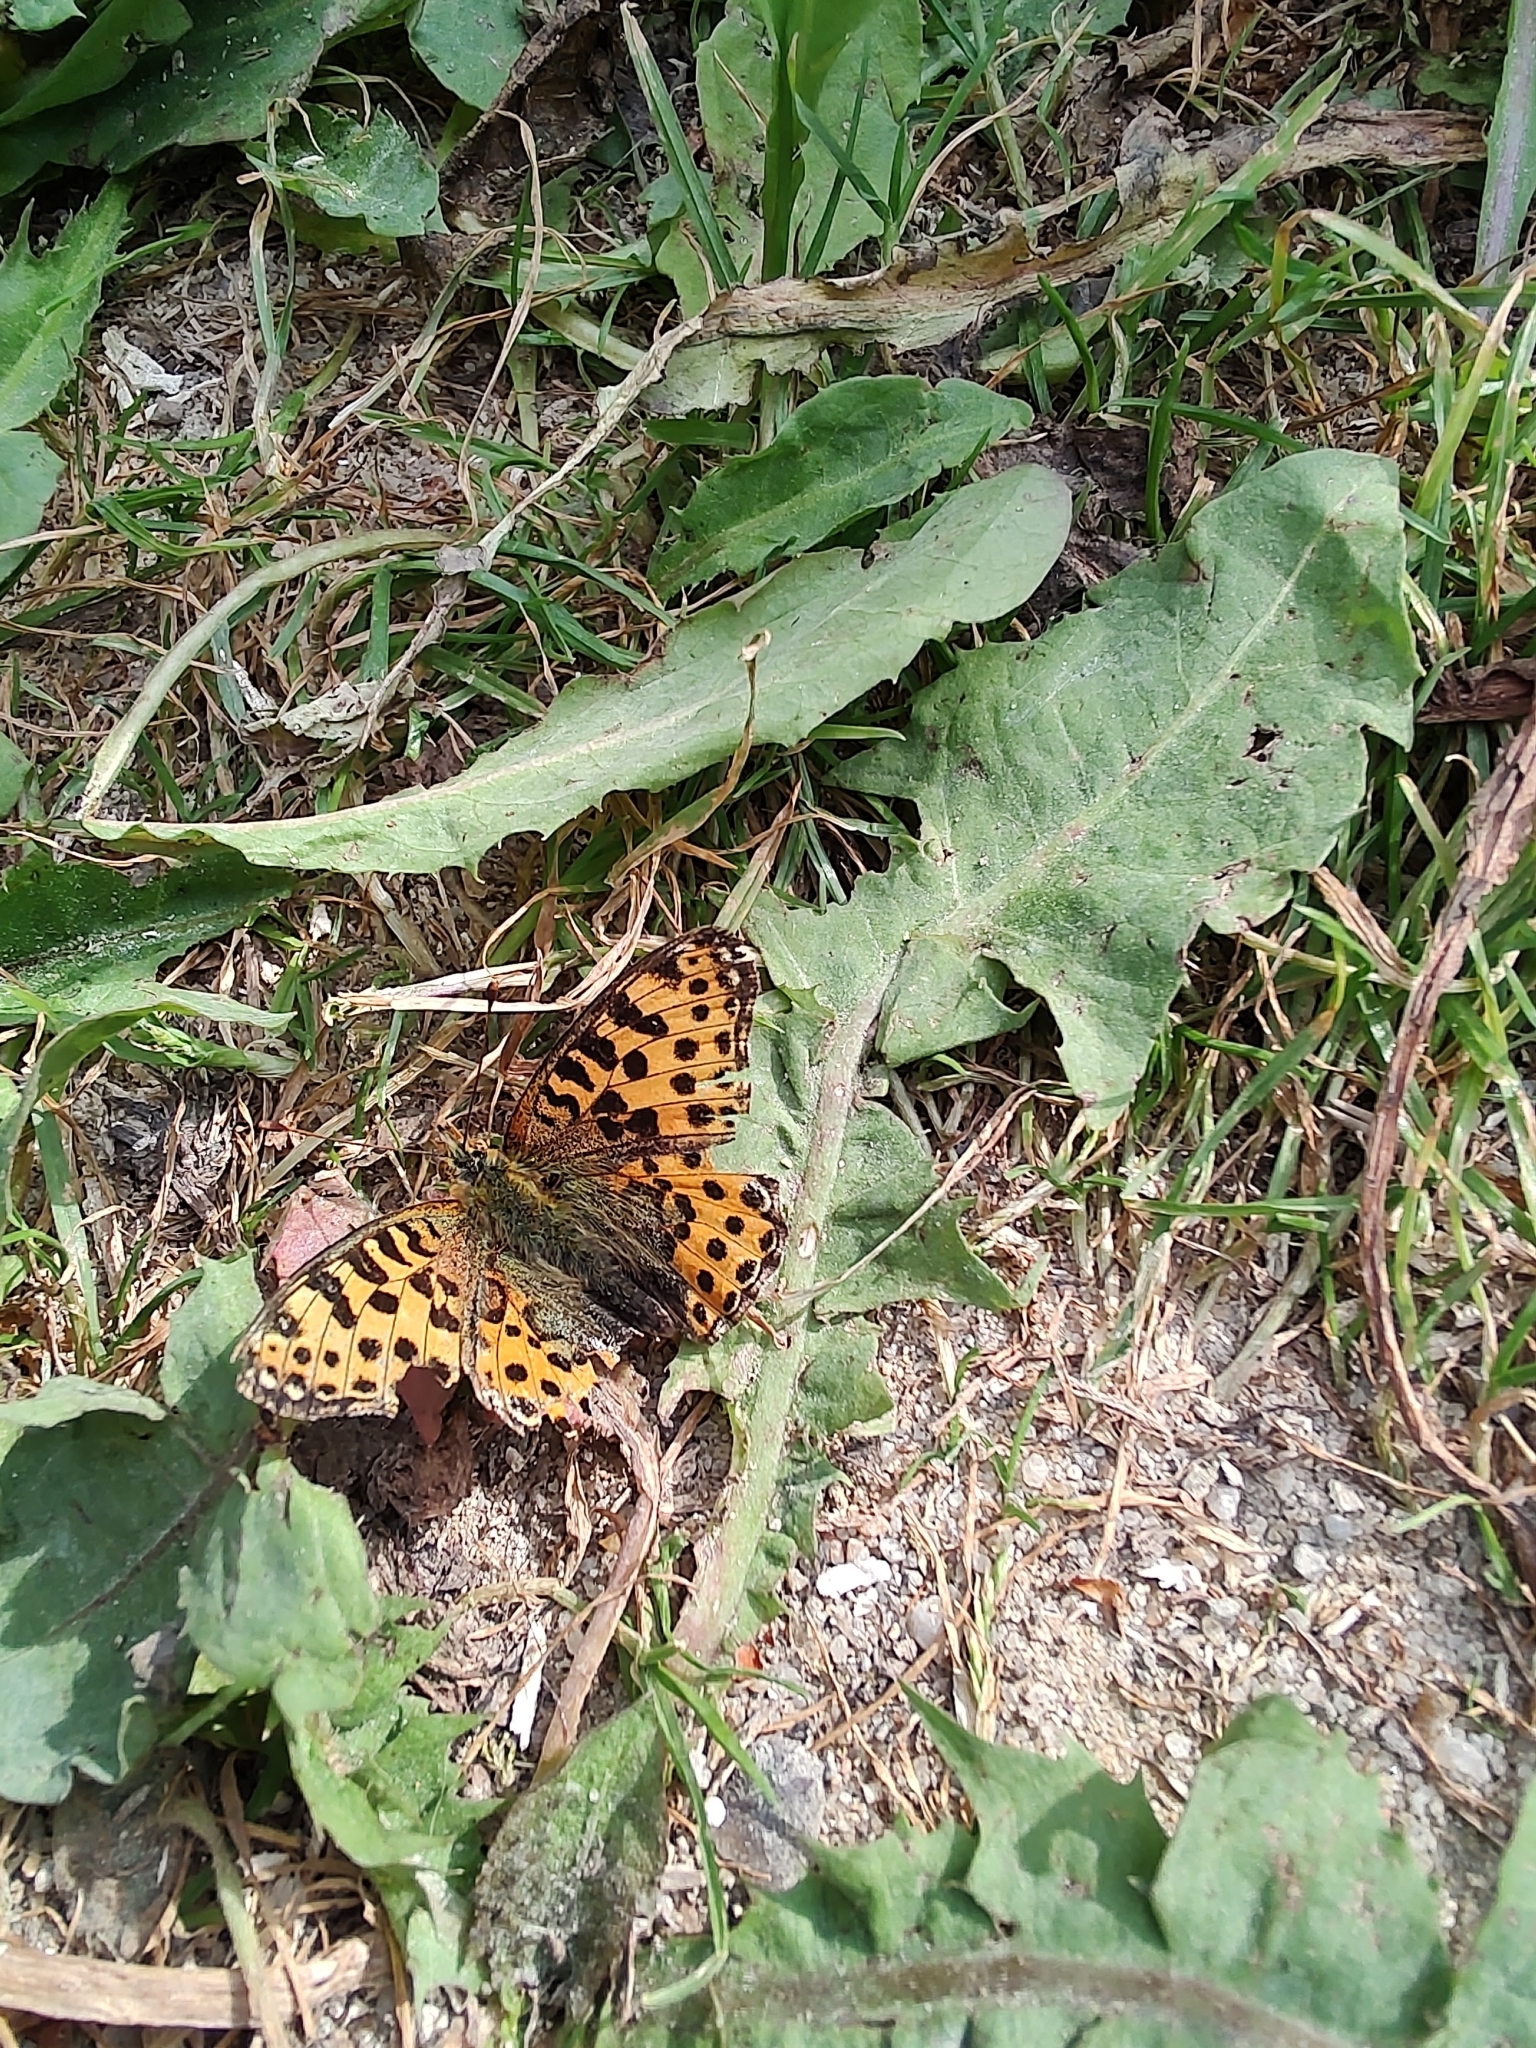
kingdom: Animalia
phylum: Arthropoda
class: Insecta
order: Lepidoptera
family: Nymphalidae
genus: Issoria
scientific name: Issoria lathonia
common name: Queen of spain fritillary
